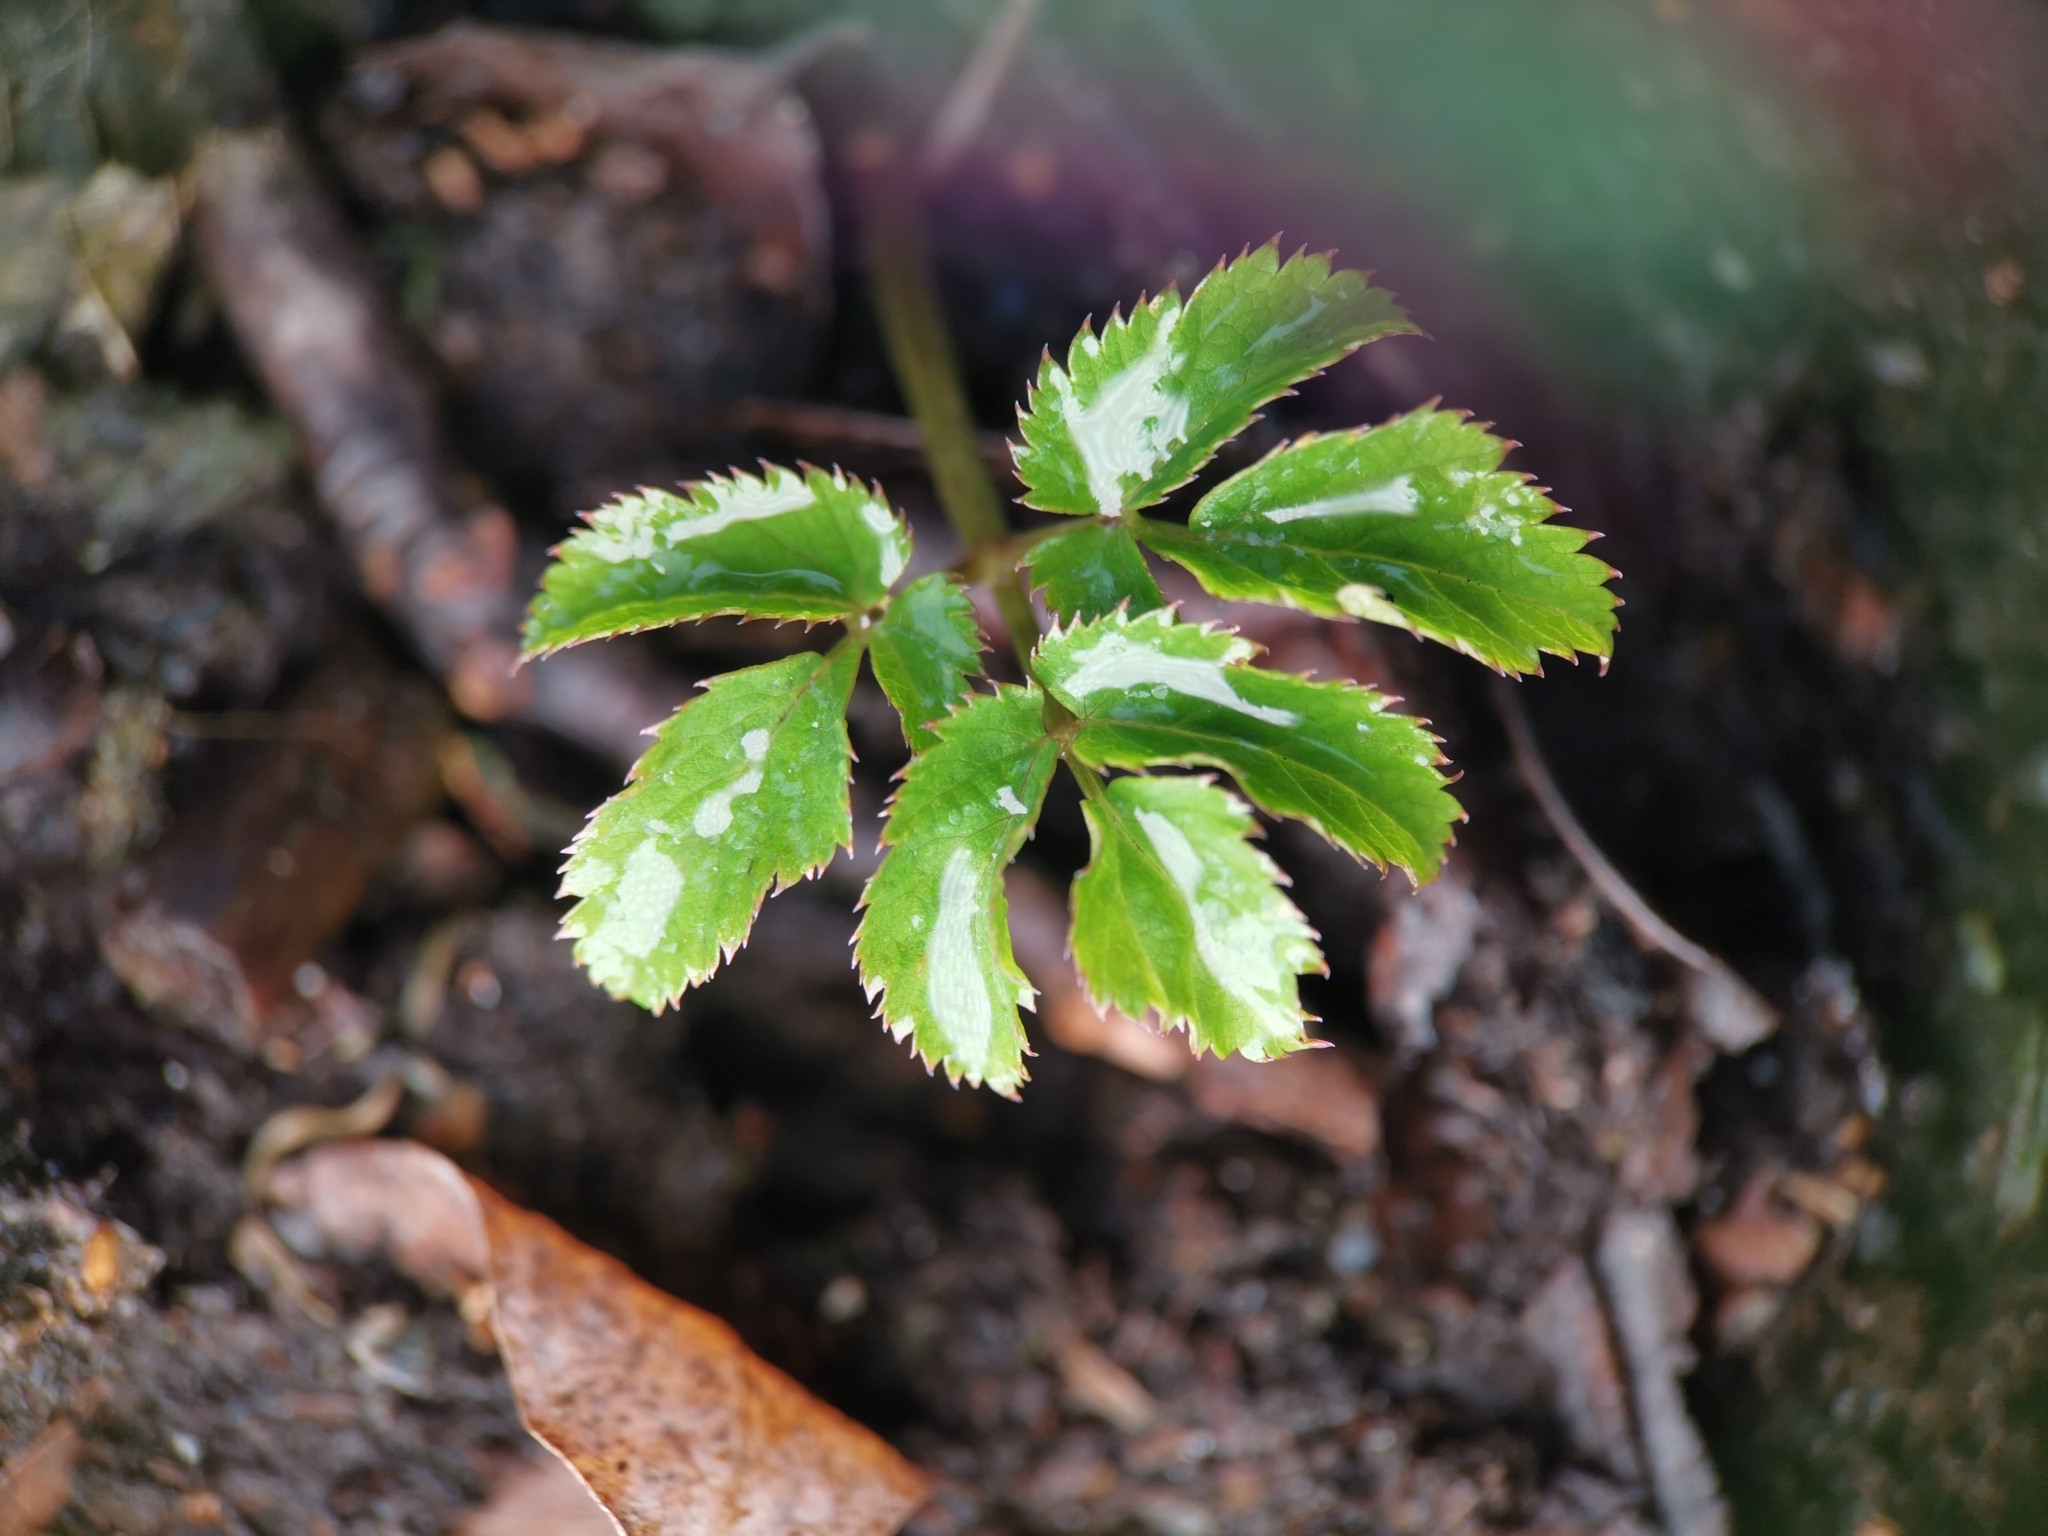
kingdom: Plantae
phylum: Tracheophyta
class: Magnoliopsida
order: Apiales
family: Apiaceae
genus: Aegopodium
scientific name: Aegopodium podagraria
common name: Ground-elder
